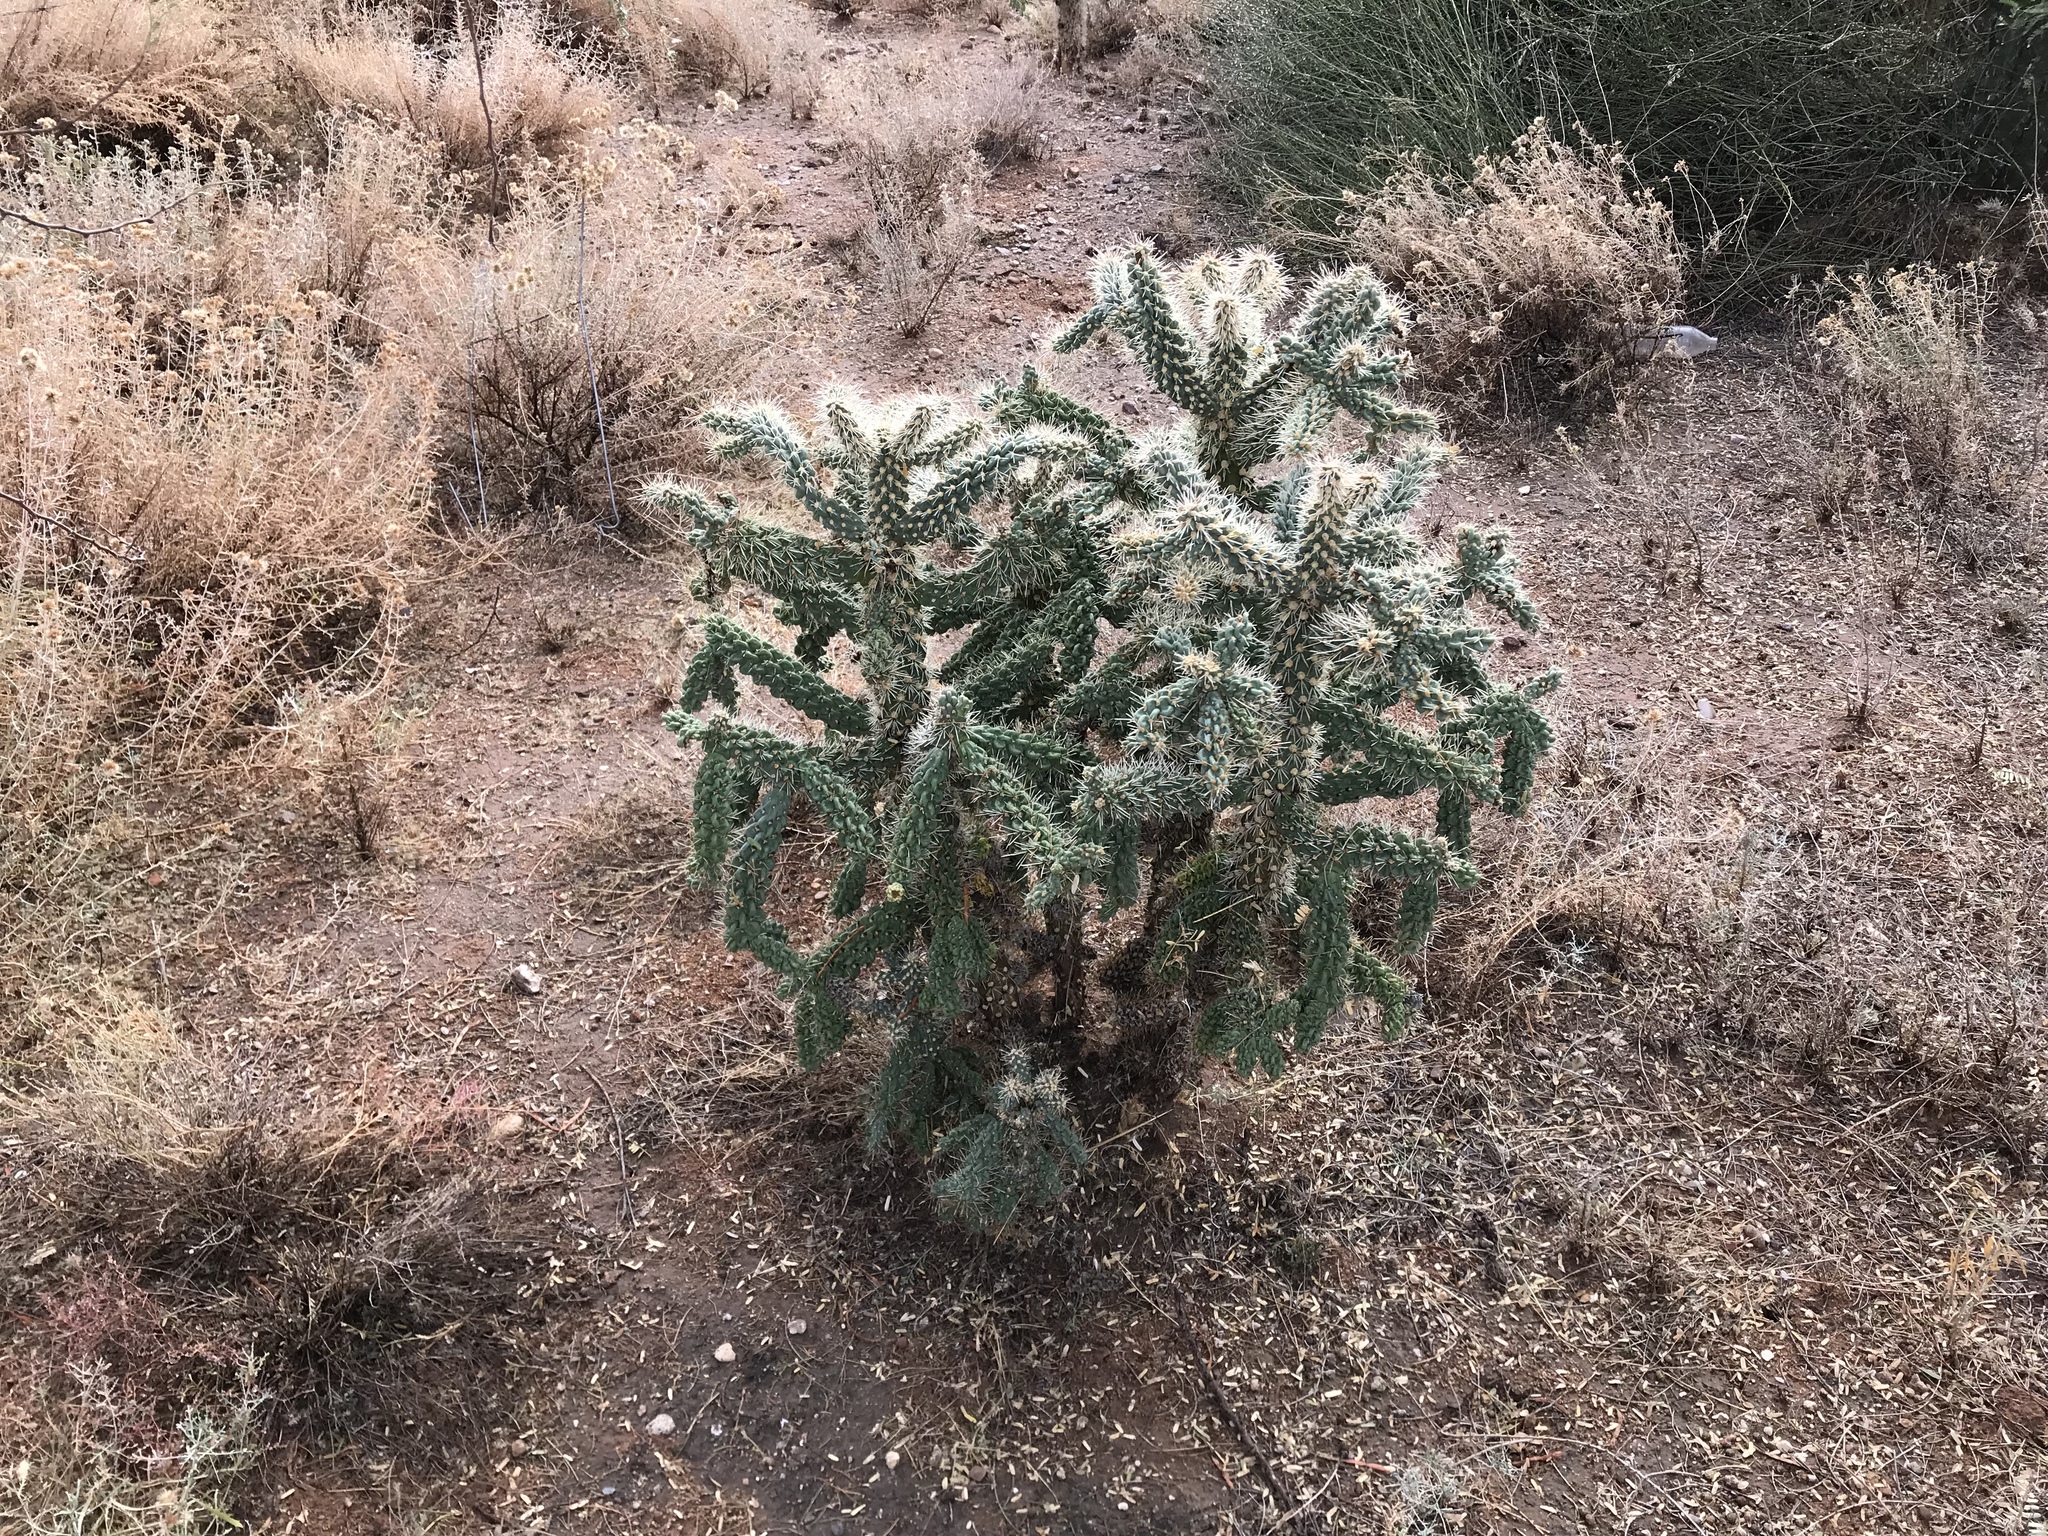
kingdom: Plantae
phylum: Tracheophyta
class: Magnoliopsida
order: Caryophyllales
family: Cactaceae
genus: Cylindropuntia
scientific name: Cylindropuntia fulgida
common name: Jumping cholla
